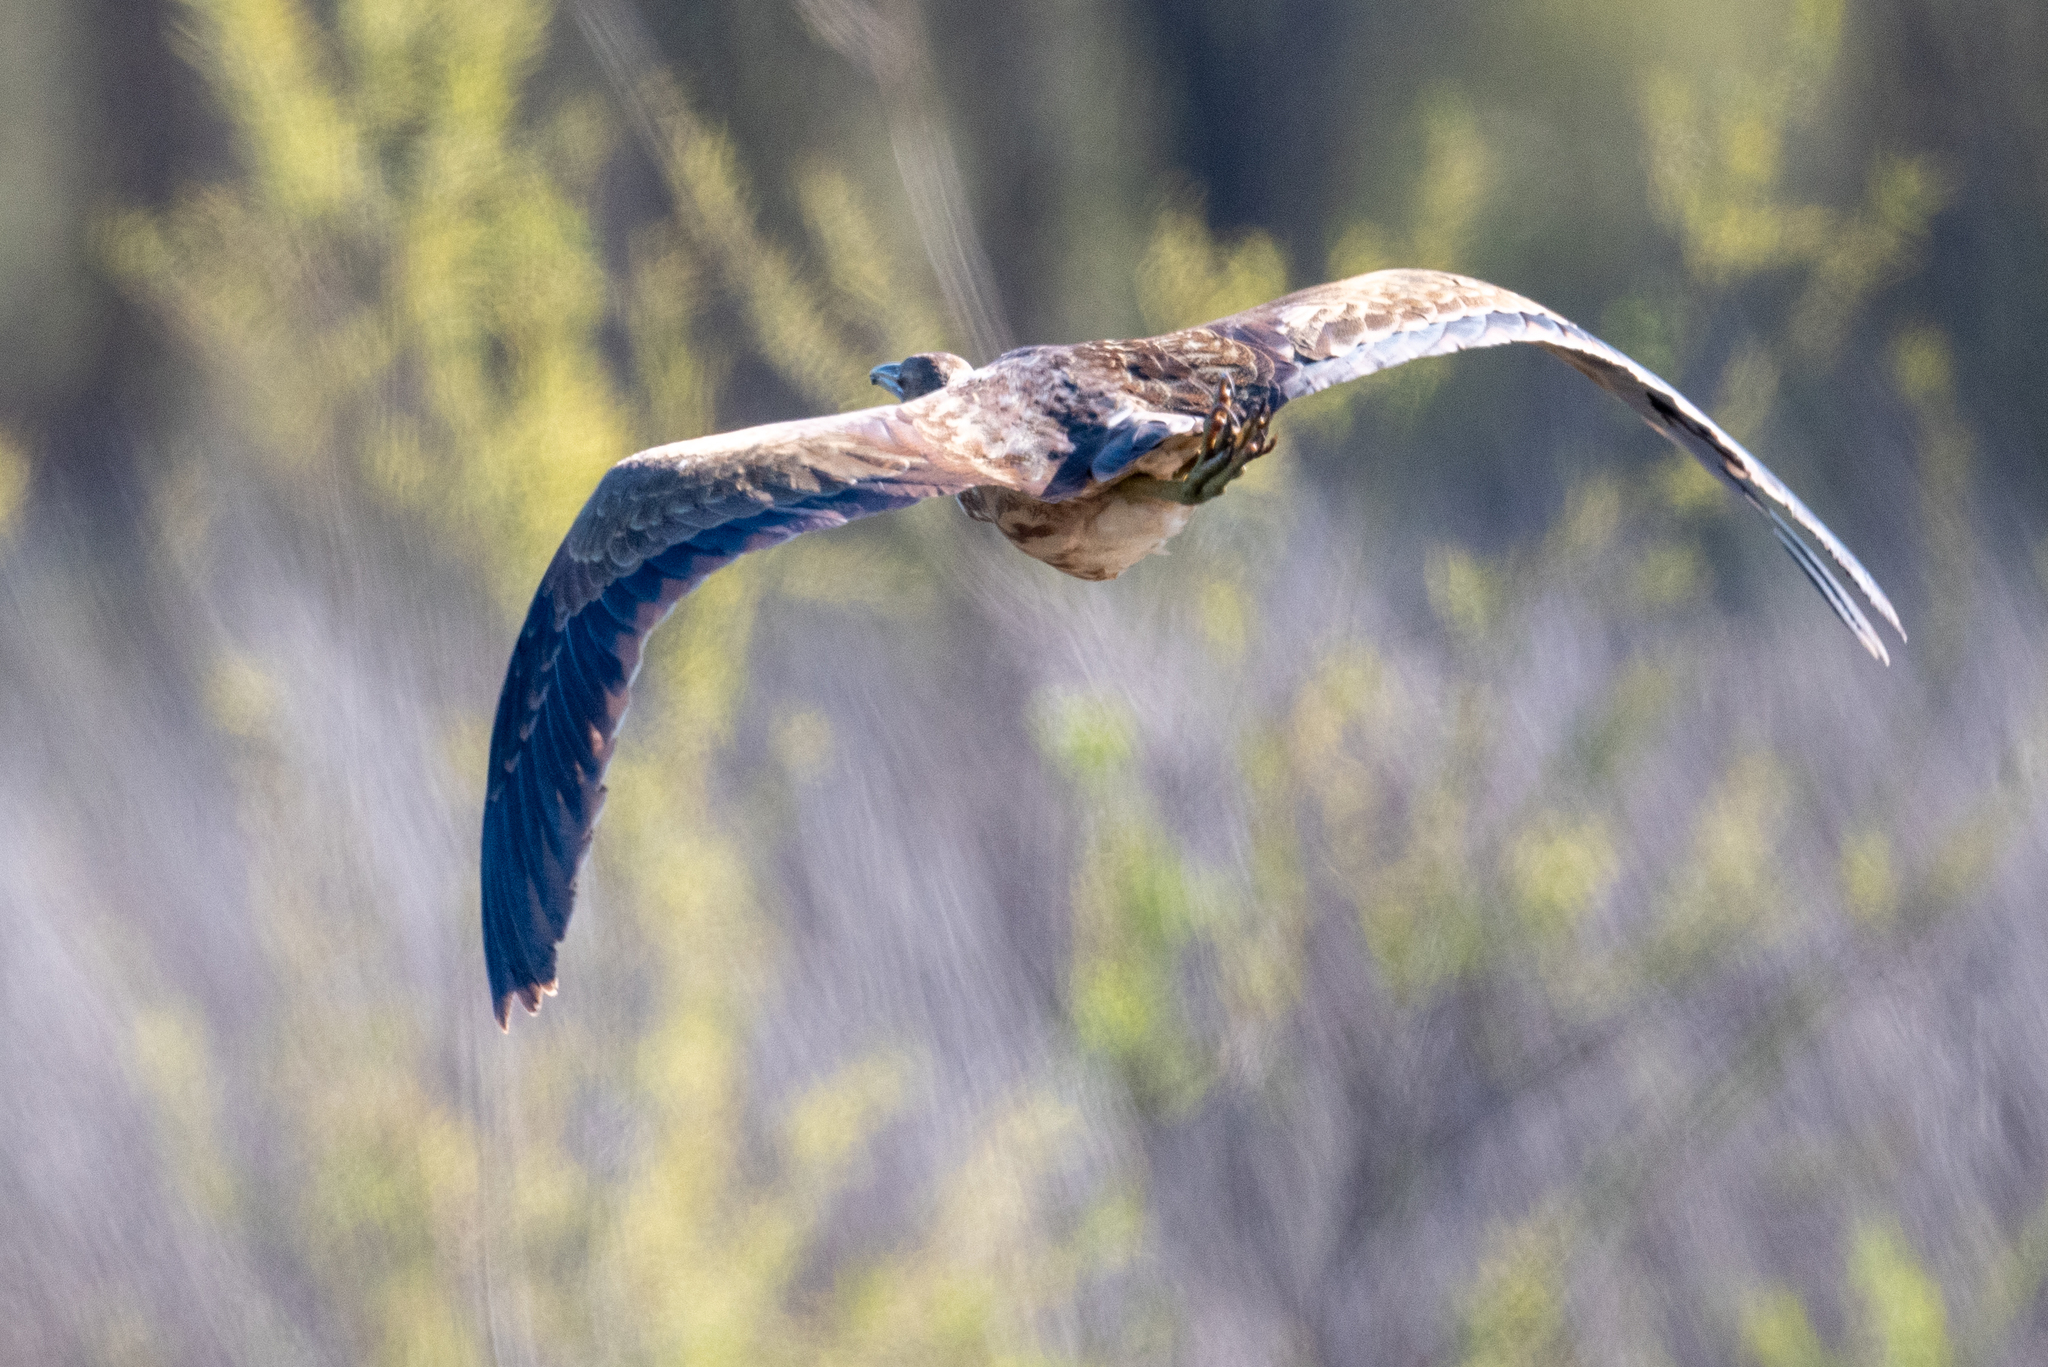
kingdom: Animalia
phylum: Chordata
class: Aves
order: Pelecaniformes
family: Ardeidae
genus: Botaurus
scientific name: Botaurus lentiginosus
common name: American bittern
